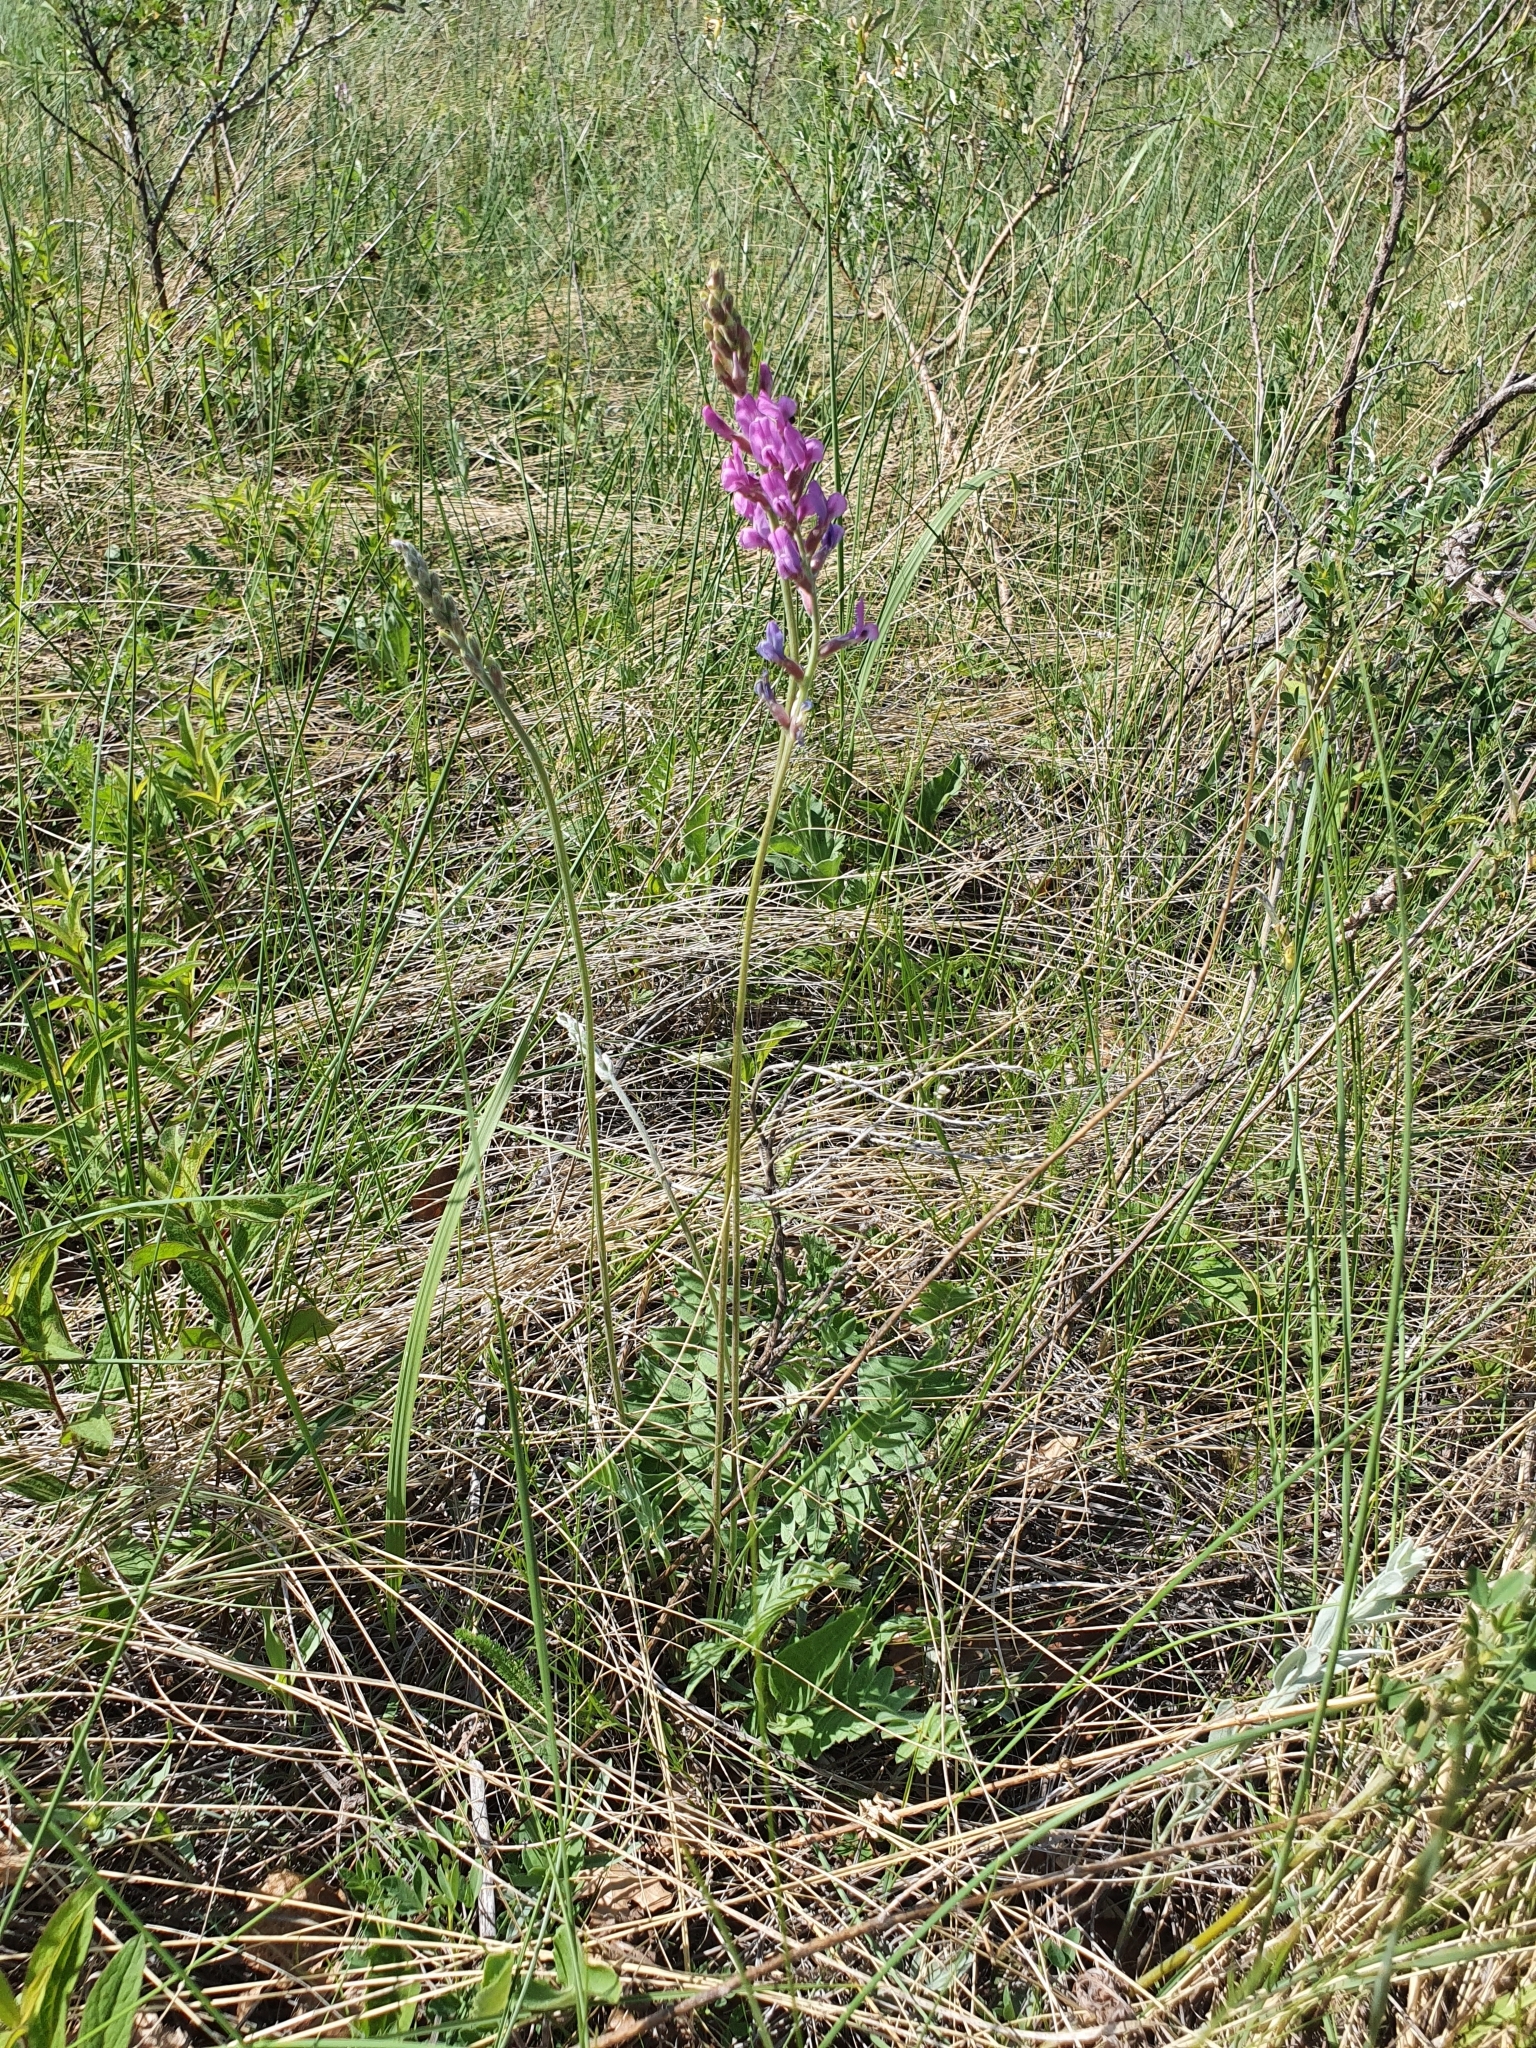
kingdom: Plantae
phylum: Tracheophyta
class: Magnoliopsida
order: Fabales
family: Fabaceae
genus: Oxytropis
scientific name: Oxytropis knjazevii
